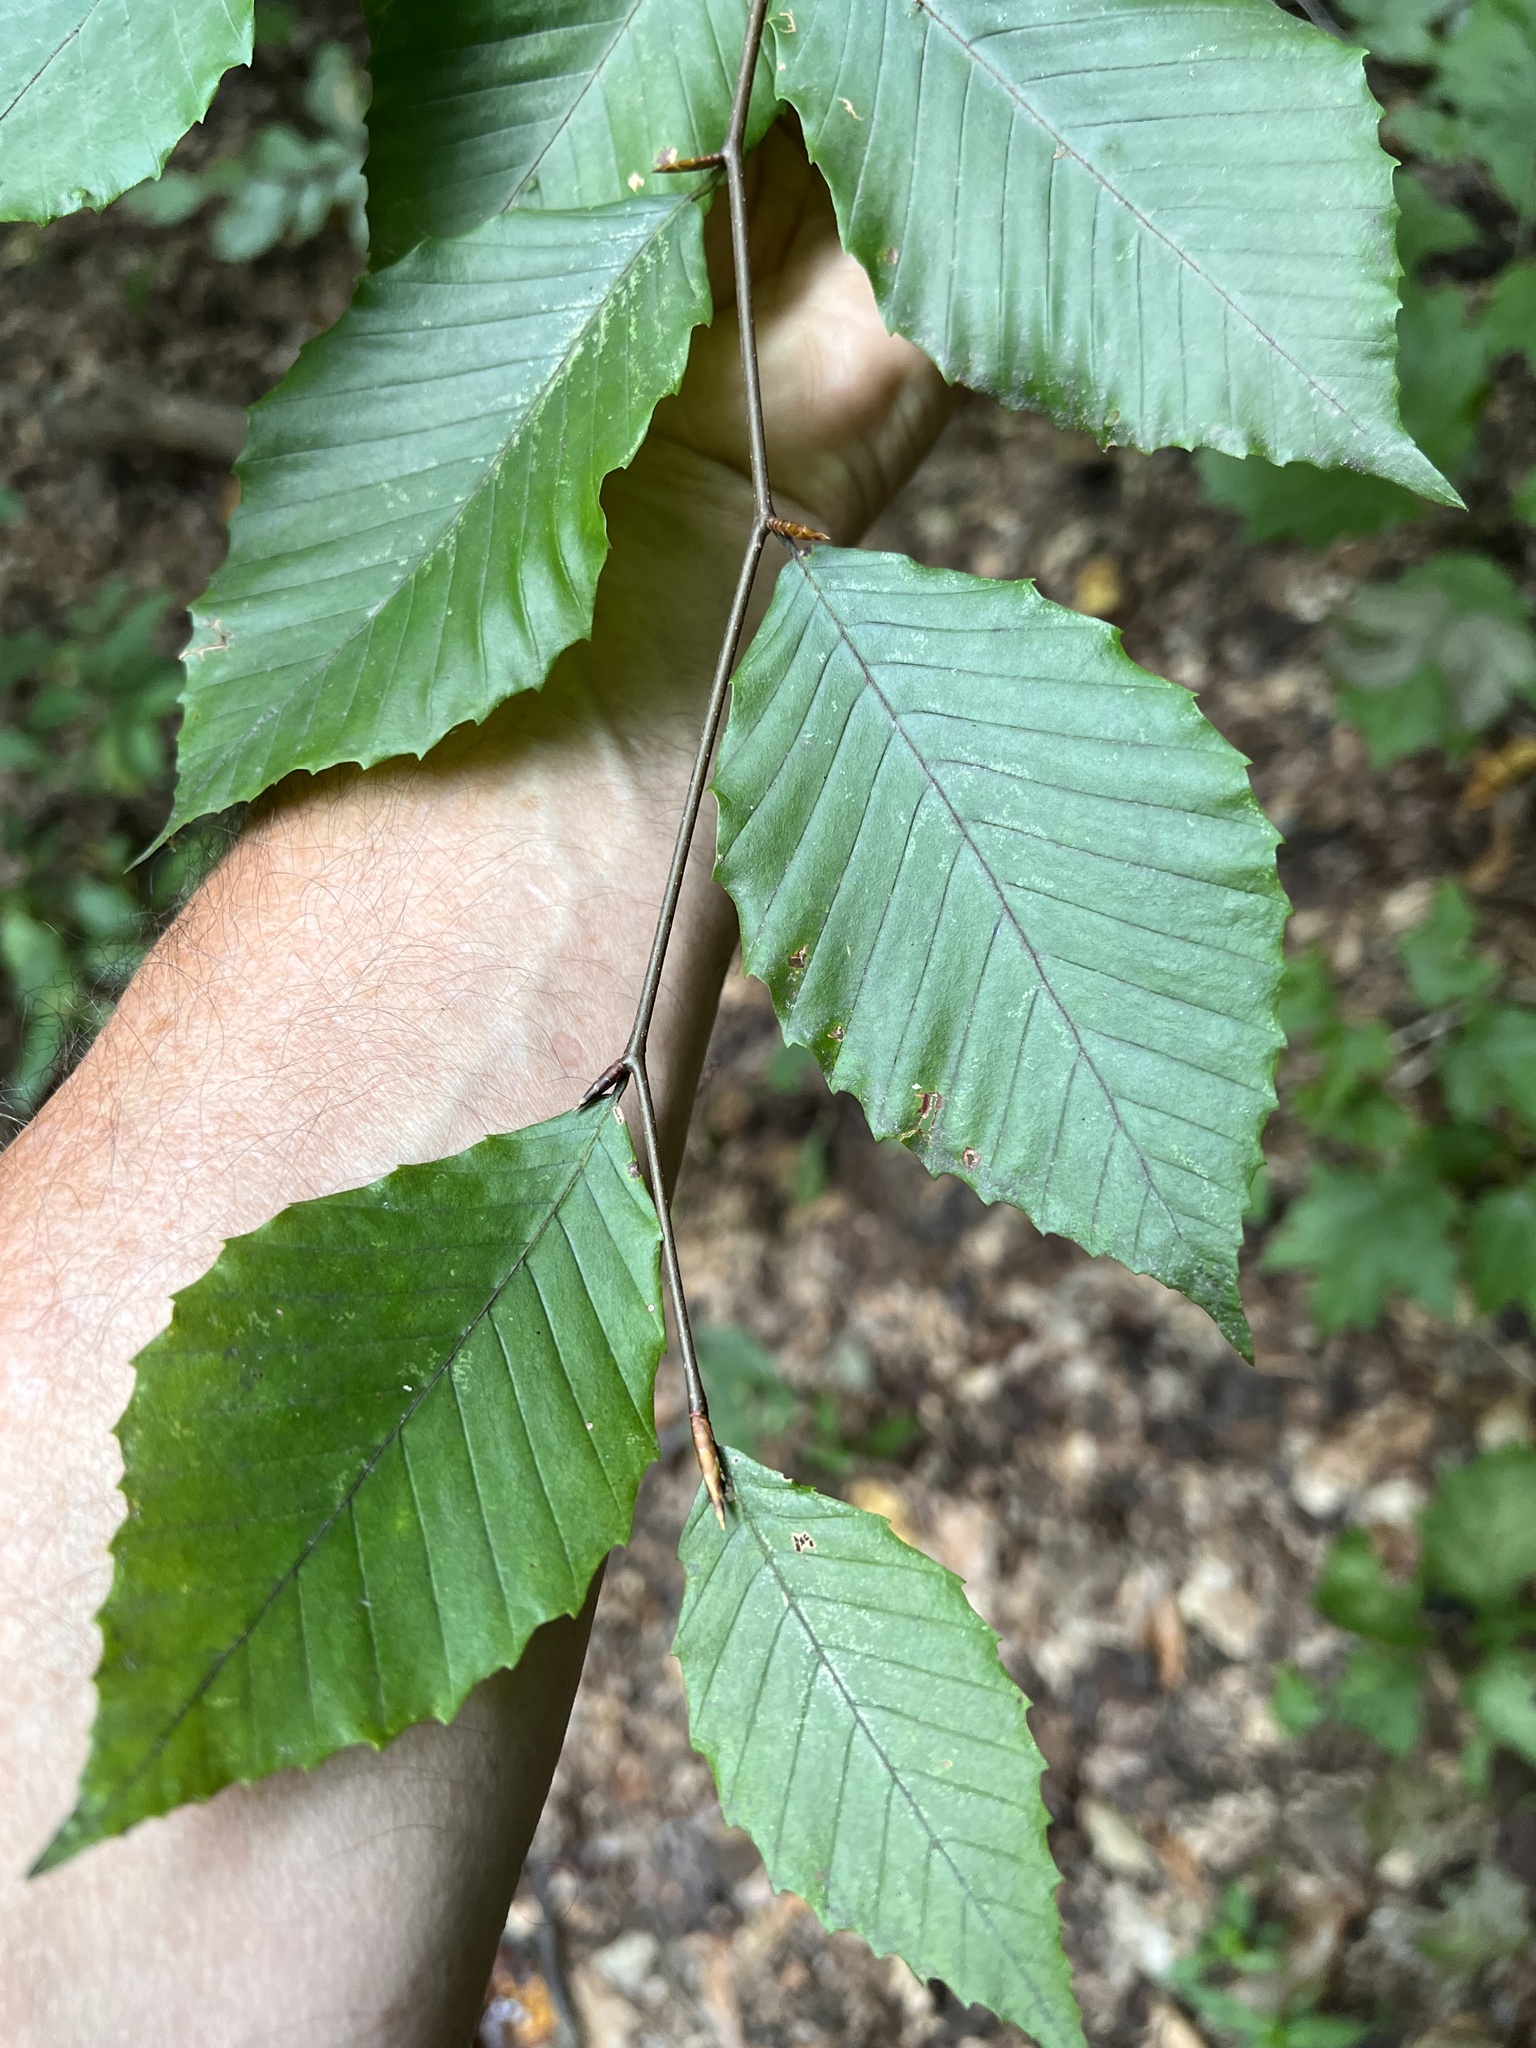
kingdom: Animalia
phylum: Arthropoda
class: Arachnida
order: Trombidiformes
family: Eriophyidae
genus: Acalitus
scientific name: Acalitus
